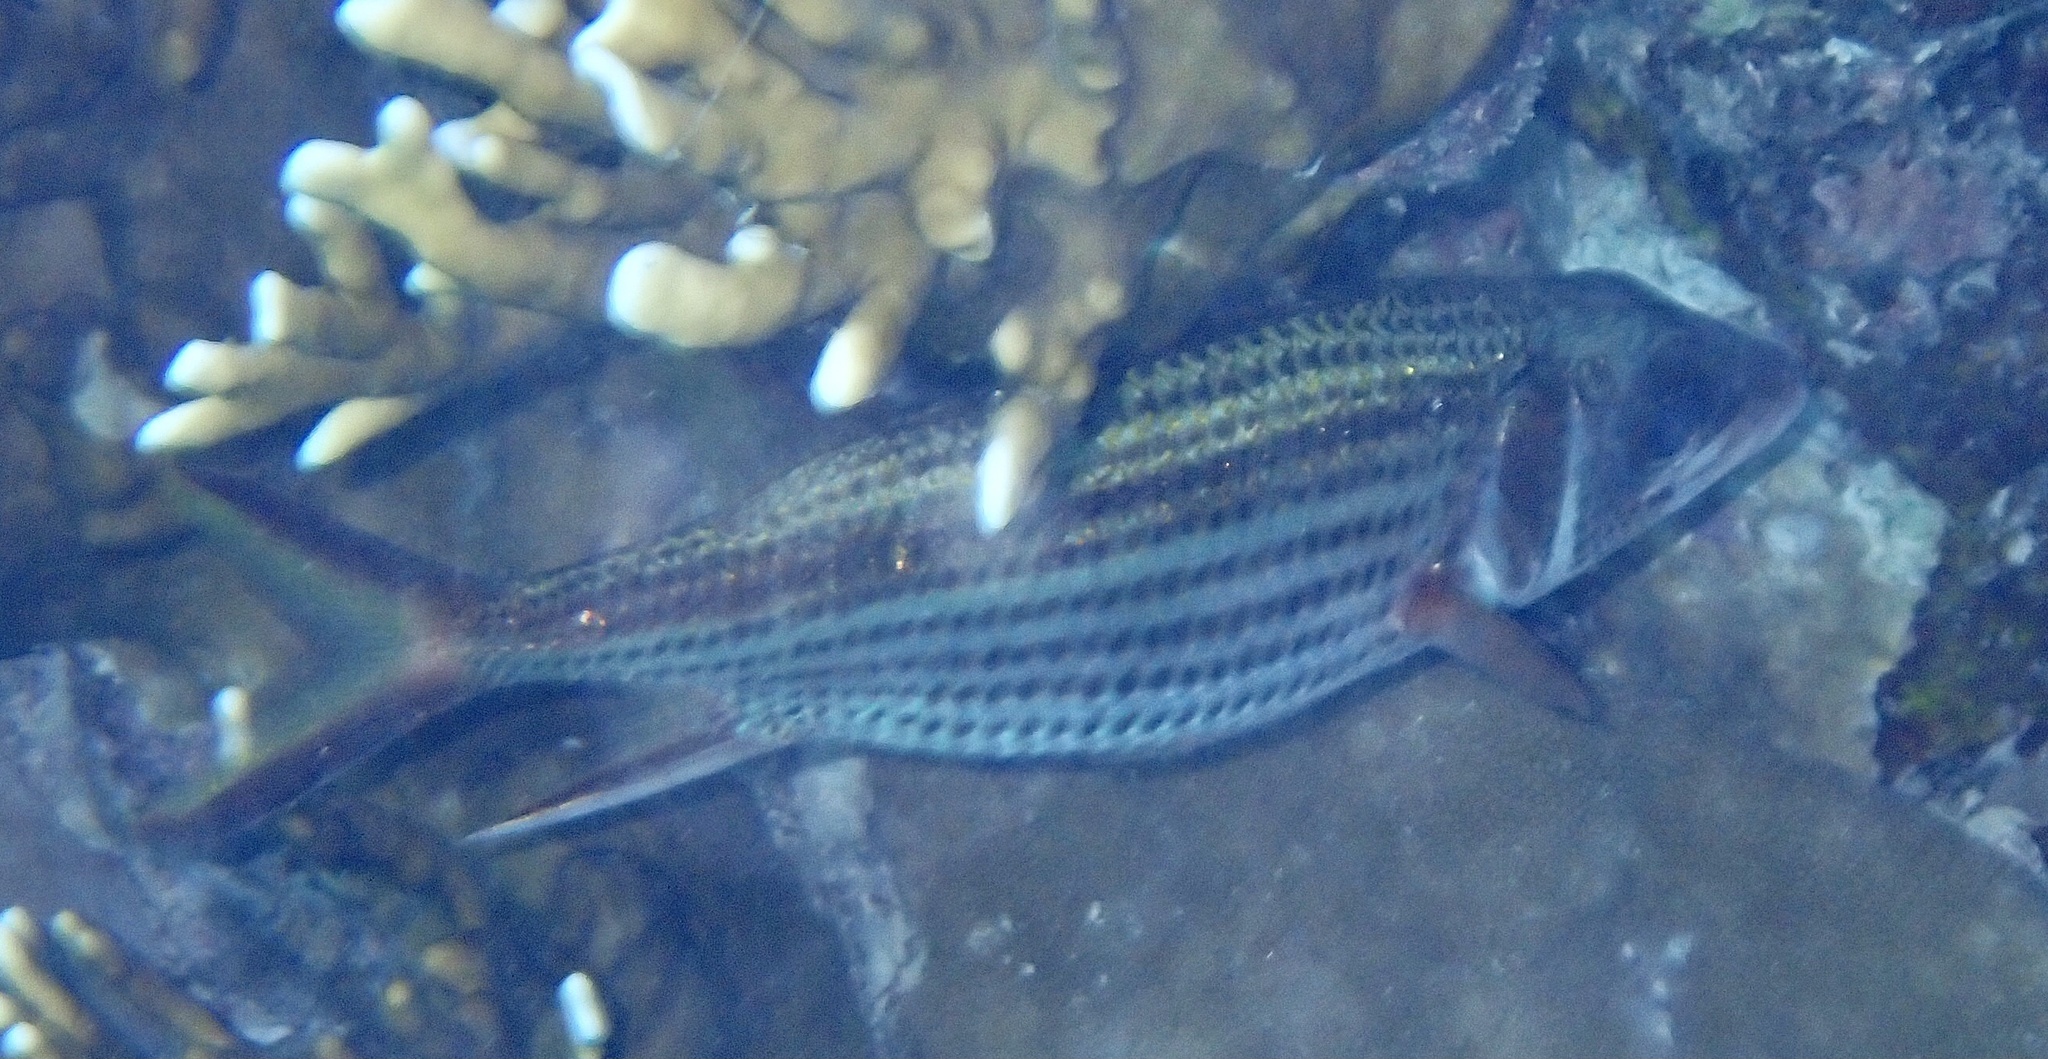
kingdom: Animalia
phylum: Chordata
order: Beryciformes
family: Holocentridae
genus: Neoniphon
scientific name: Neoniphon sammara
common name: Sammara squirrelfish
